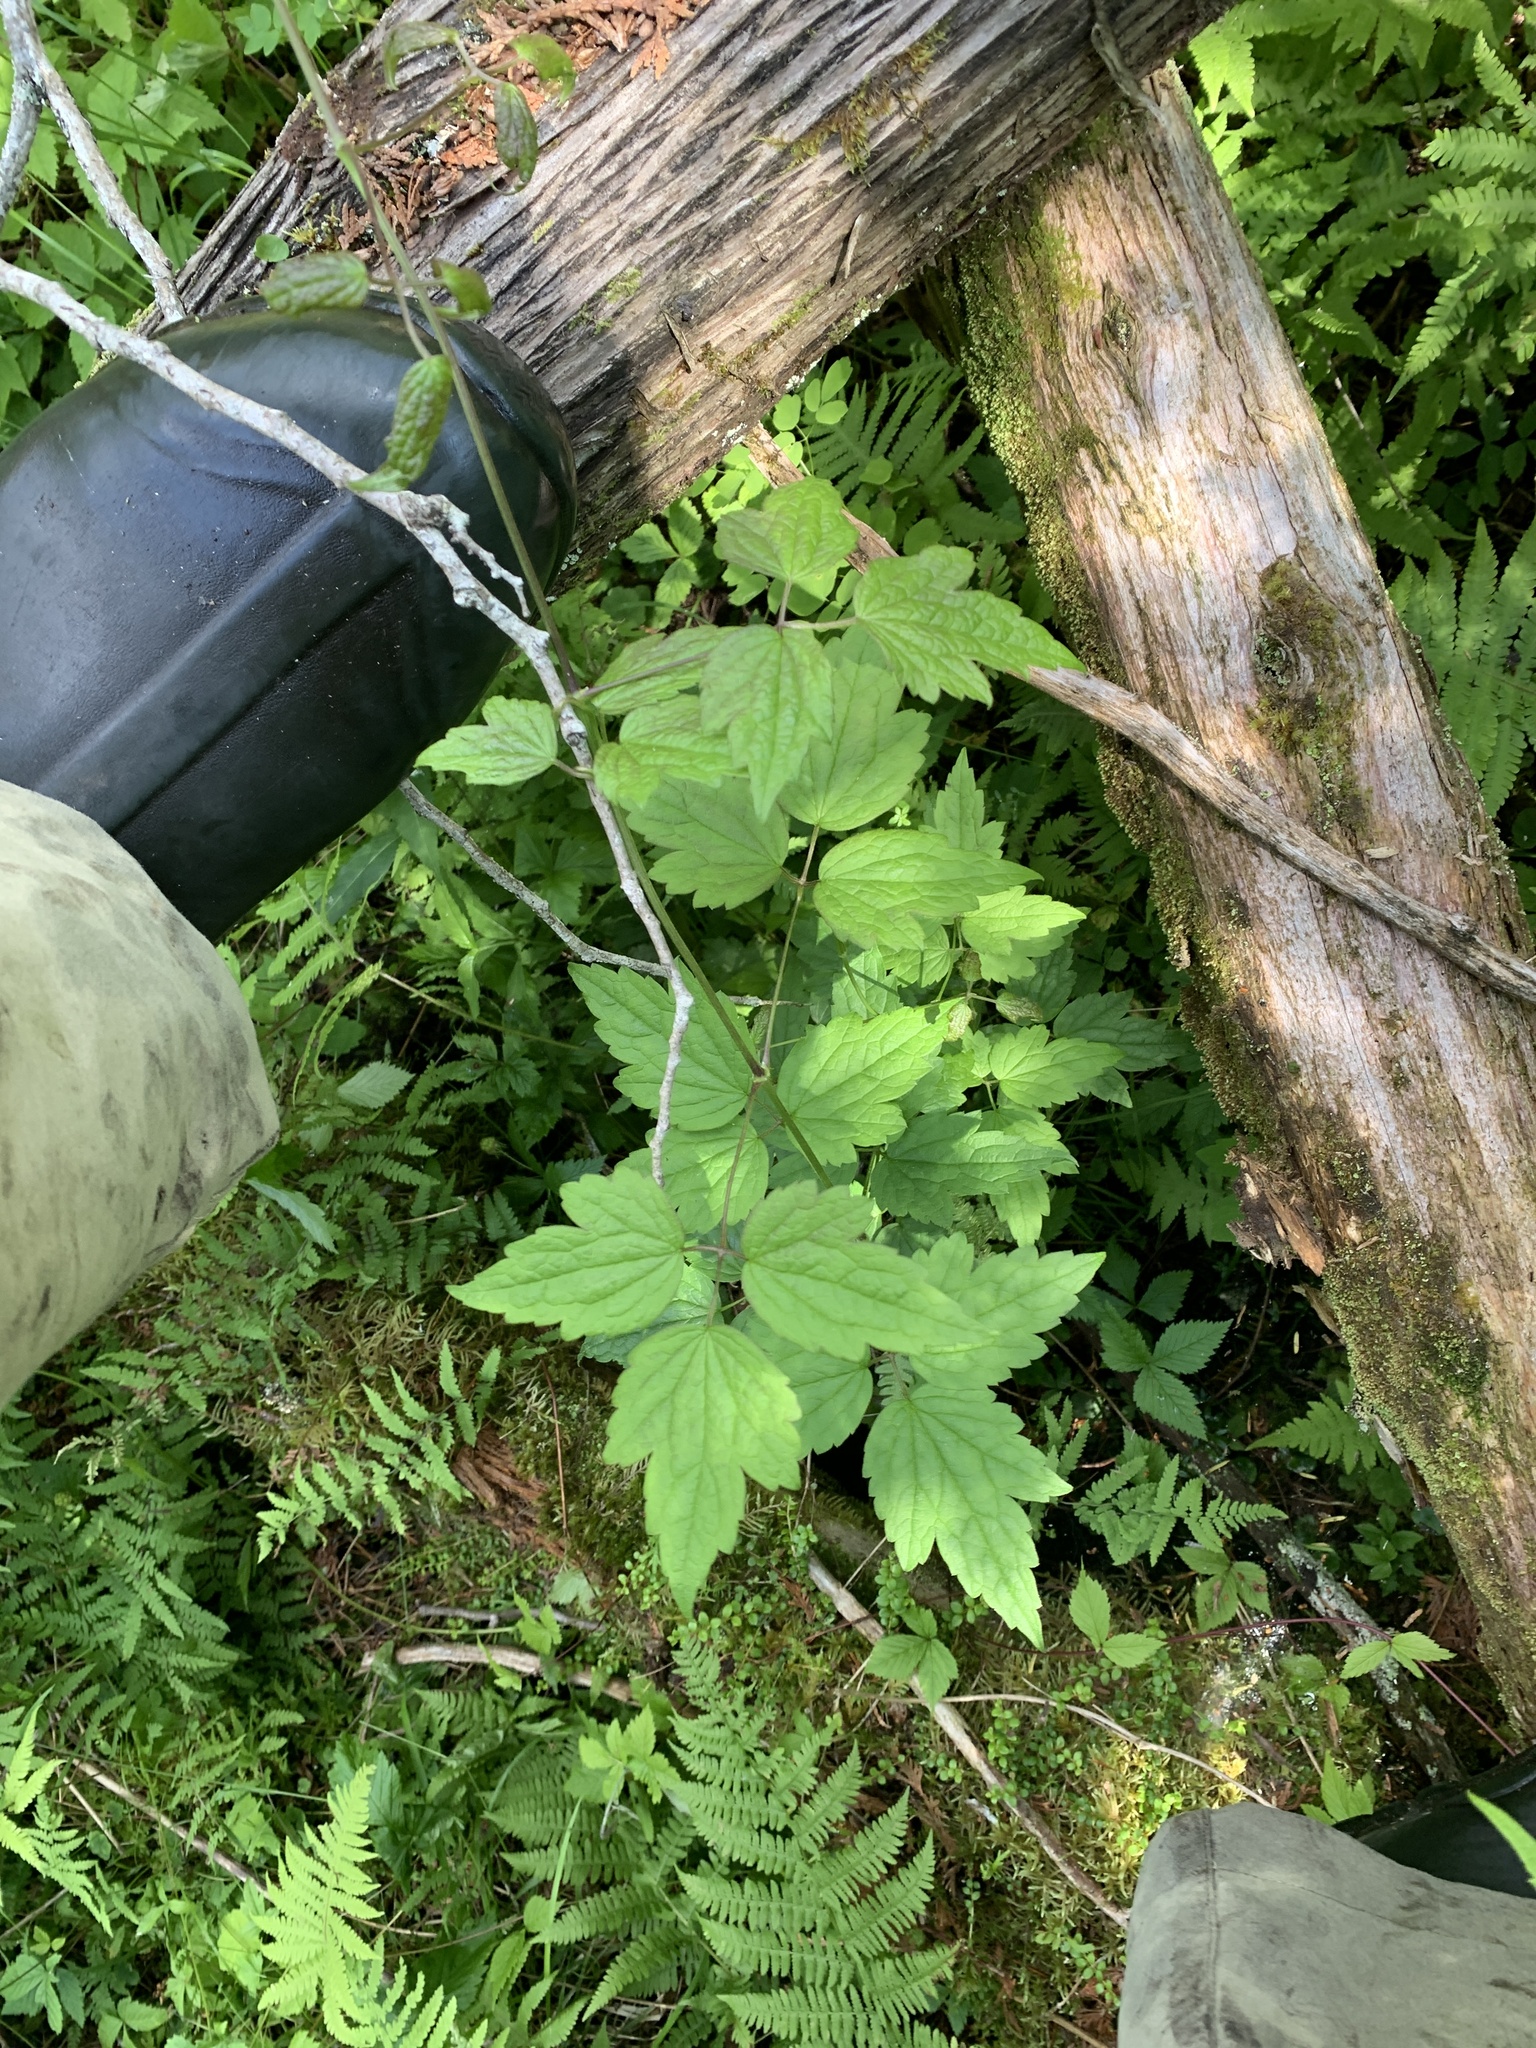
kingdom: Plantae
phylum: Tracheophyta
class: Magnoliopsida
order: Ranunculales
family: Ranunculaceae
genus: Clematis
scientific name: Clematis virginiana
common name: Virgin's-bower
